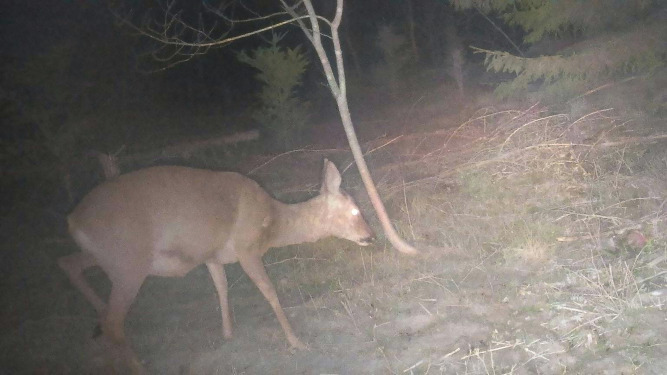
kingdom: Animalia
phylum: Chordata
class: Mammalia
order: Artiodactyla
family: Cervidae
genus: Capreolus
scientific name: Capreolus capreolus
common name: Western roe deer
